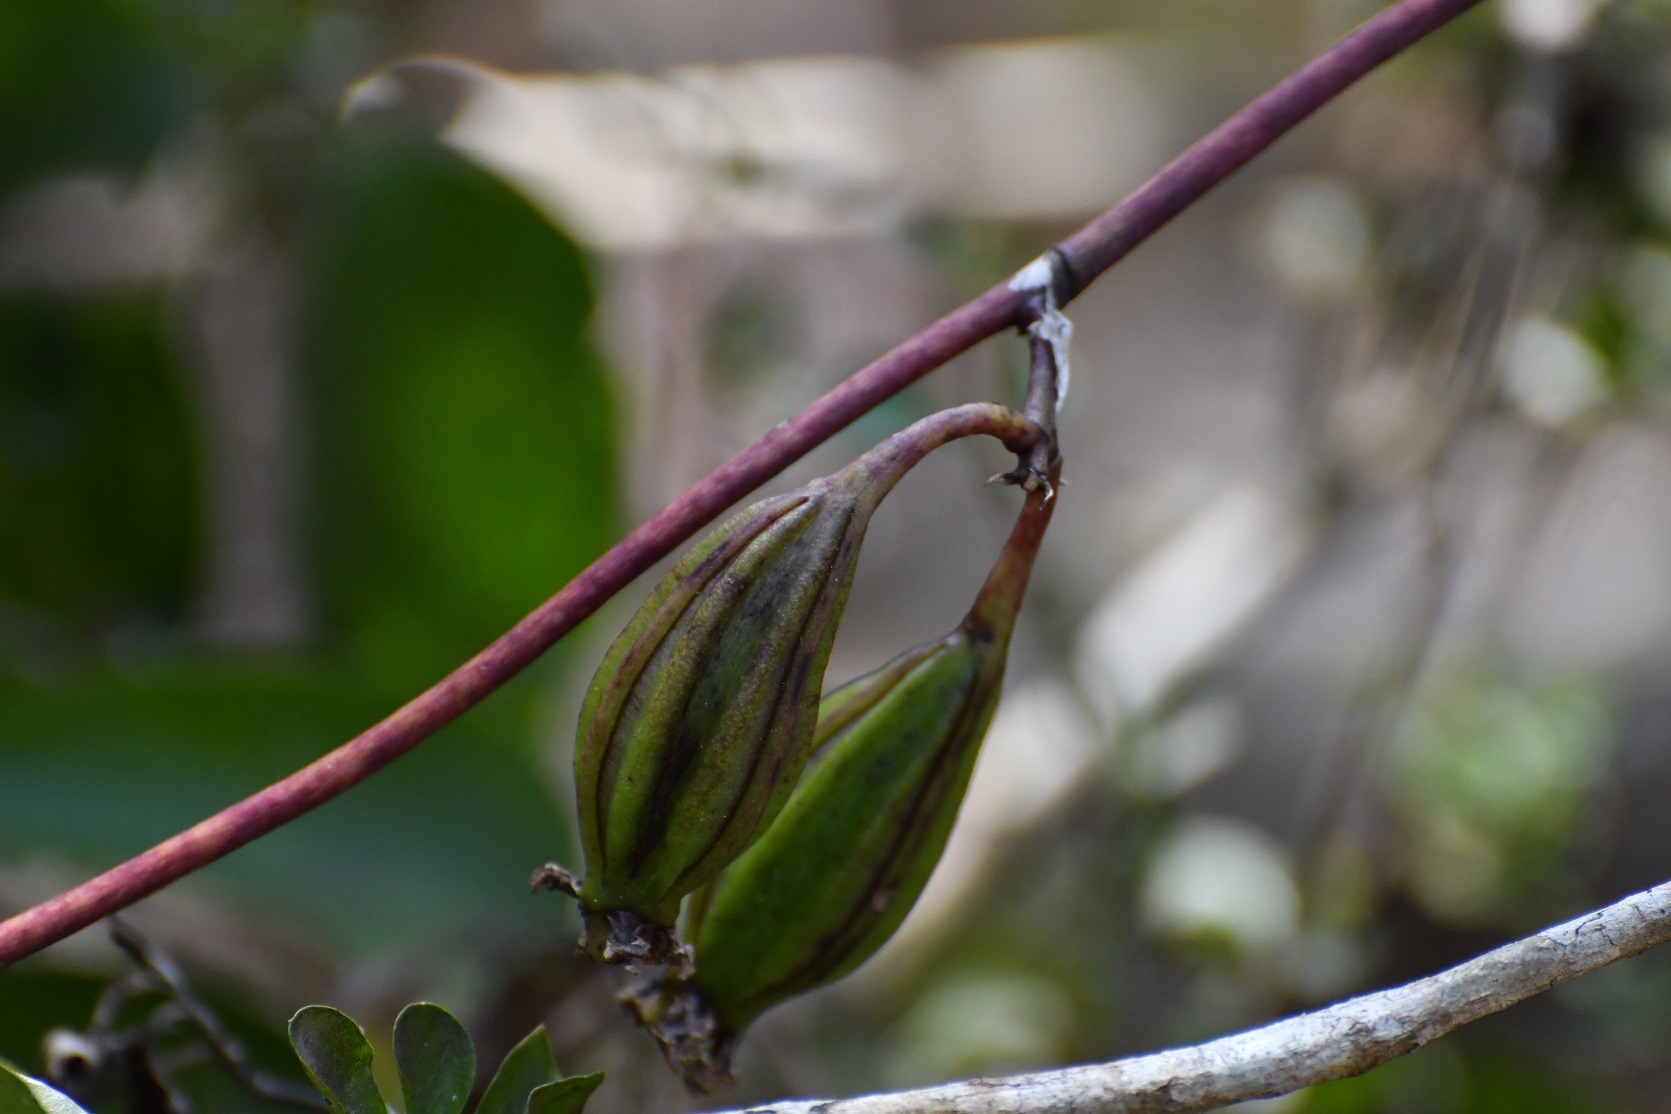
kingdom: Plantae
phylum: Tracheophyta
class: Liliopsida
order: Asparagales
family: Orchidaceae
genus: Trichocentrum
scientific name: Trichocentrum andreanum
